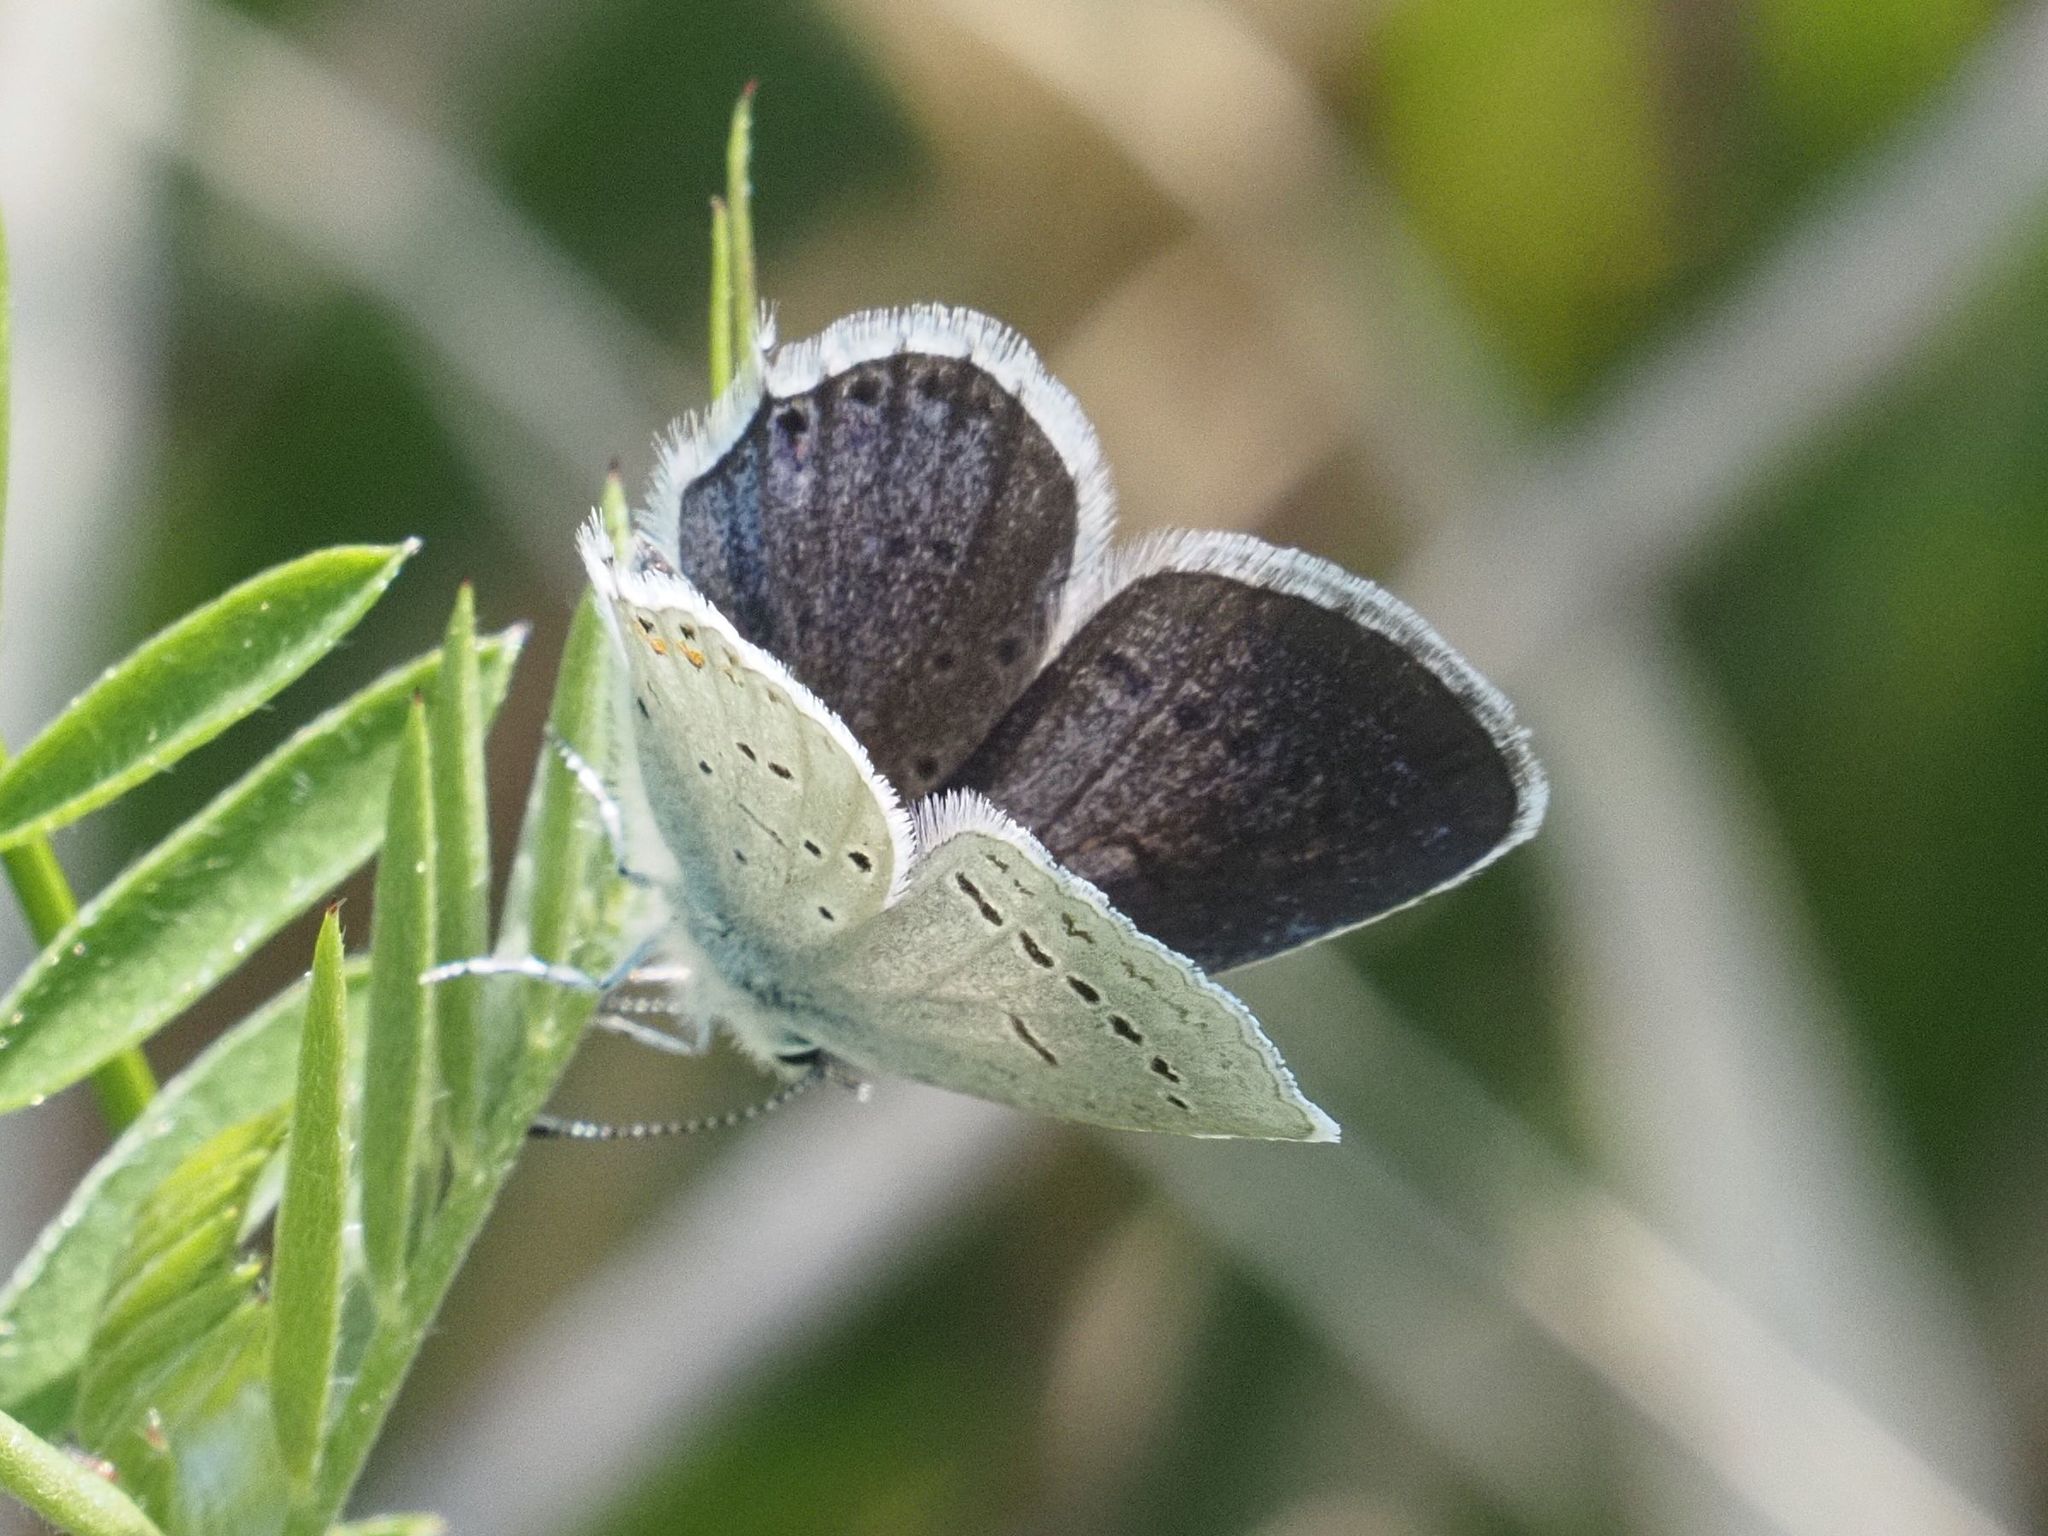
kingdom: Animalia
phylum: Arthropoda
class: Insecta
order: Lepidoptera
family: Lycaenidae
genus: Elkalyce
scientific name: Elkalyce argiades
